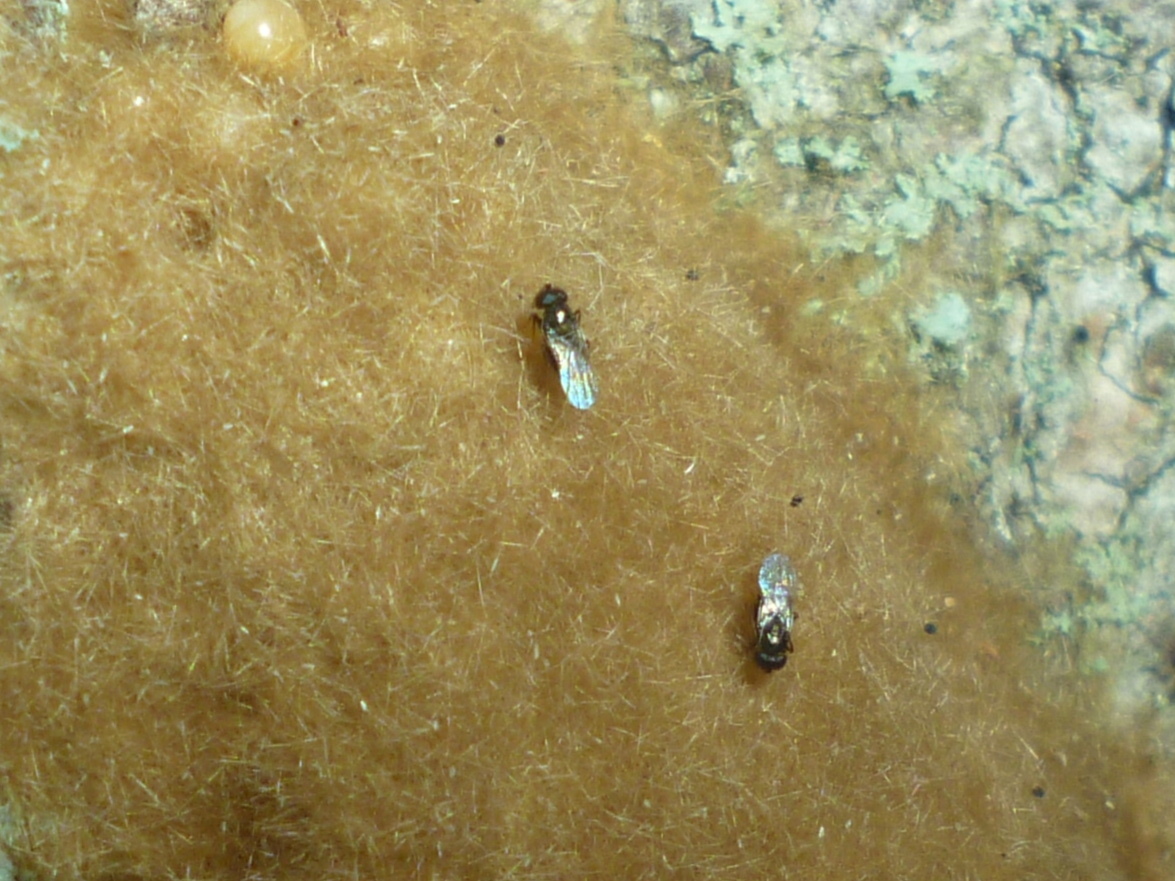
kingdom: Animalia
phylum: Arthropoda
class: Insecta
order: Hymenoptera
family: Encyrtidae
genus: Ooencyrtus
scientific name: Ooencyrtus kuvanae
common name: Wasp
